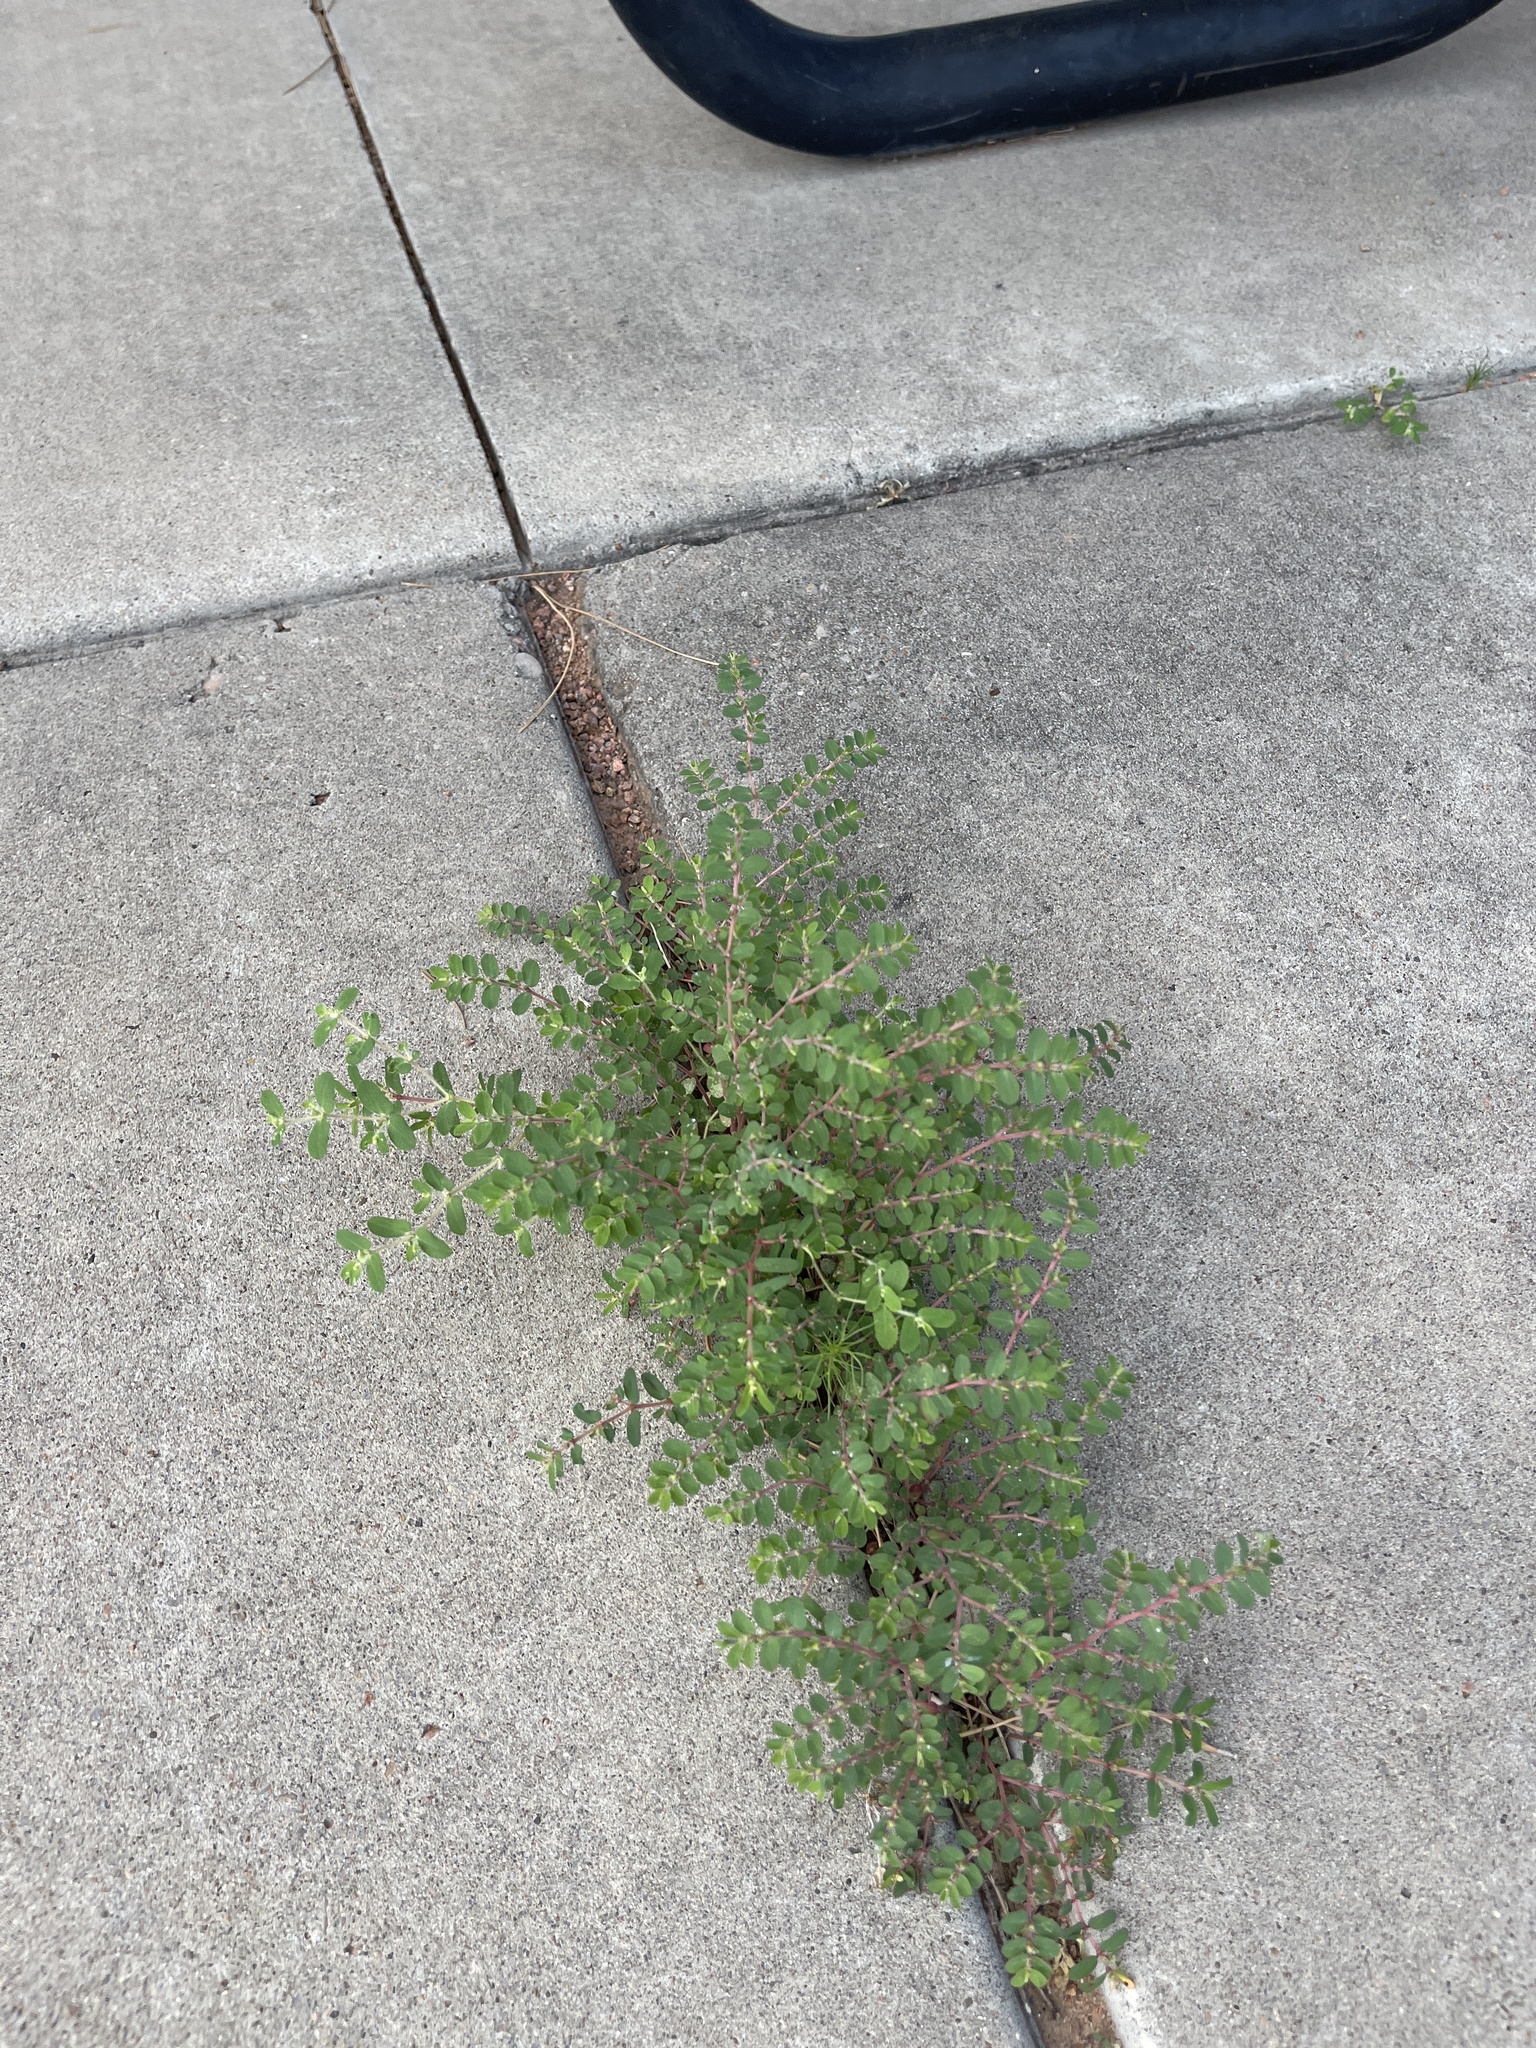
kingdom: Plantae
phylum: Tracheophyta
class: Magnoliopsida
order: Malpighiales
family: Euphorbiaceae
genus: Euphorbia
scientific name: Euphorbia prostrata
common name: Prostrate sandmat
